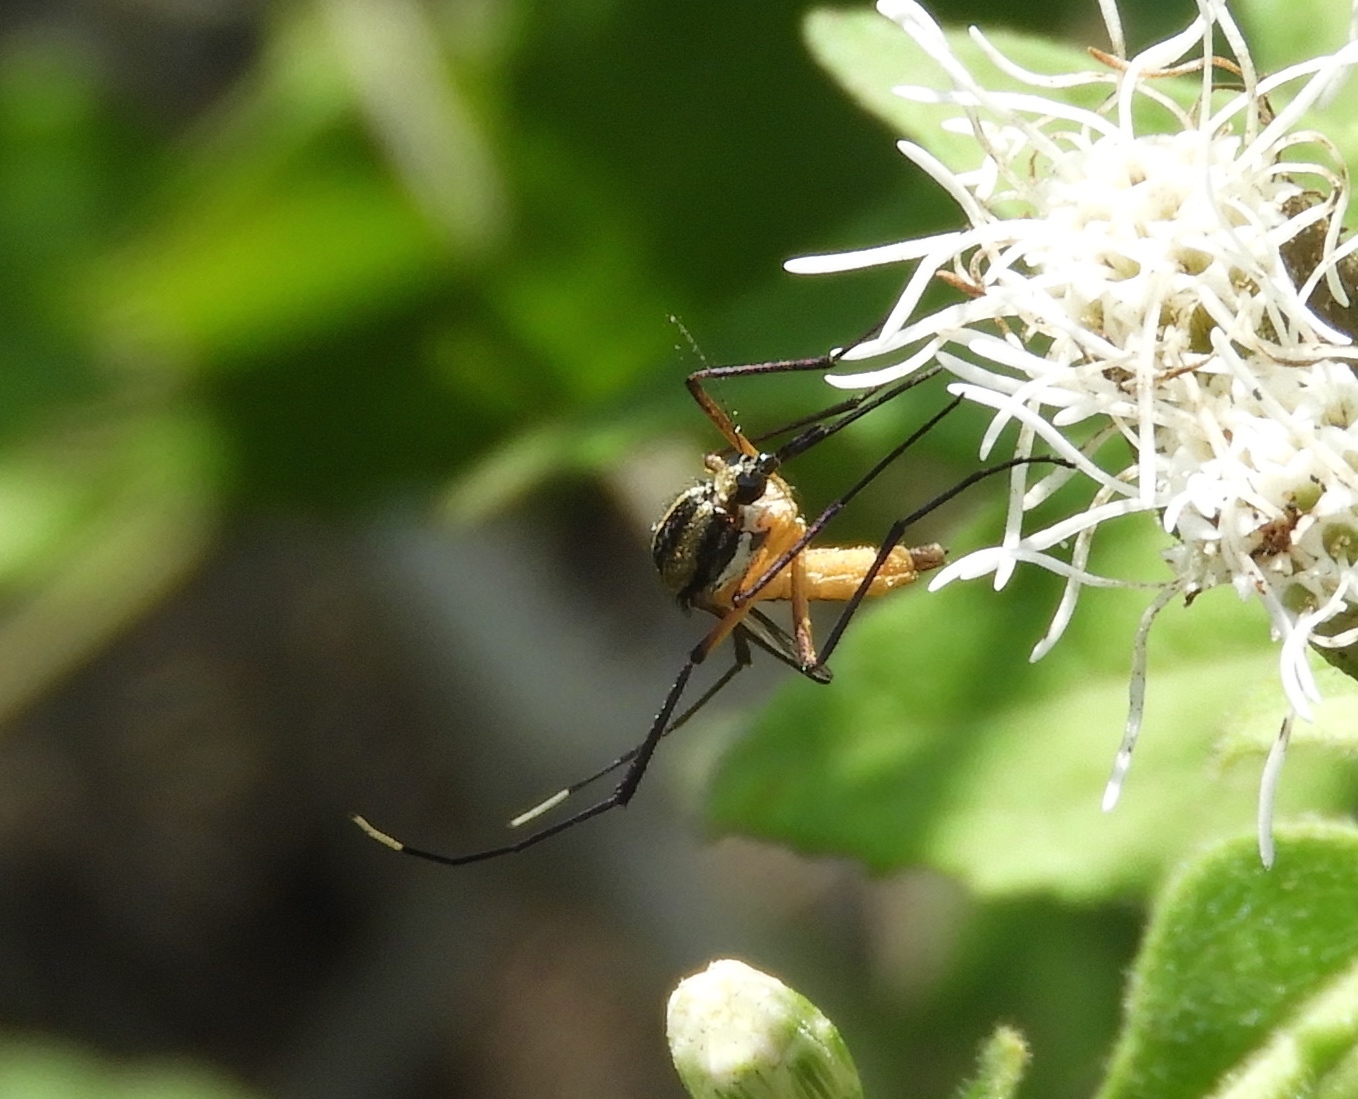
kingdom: Animalia
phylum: Arthropoda
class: Insecta
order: Diptera
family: Culicidae
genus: Psorophora
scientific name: Psorophora longipalpus
